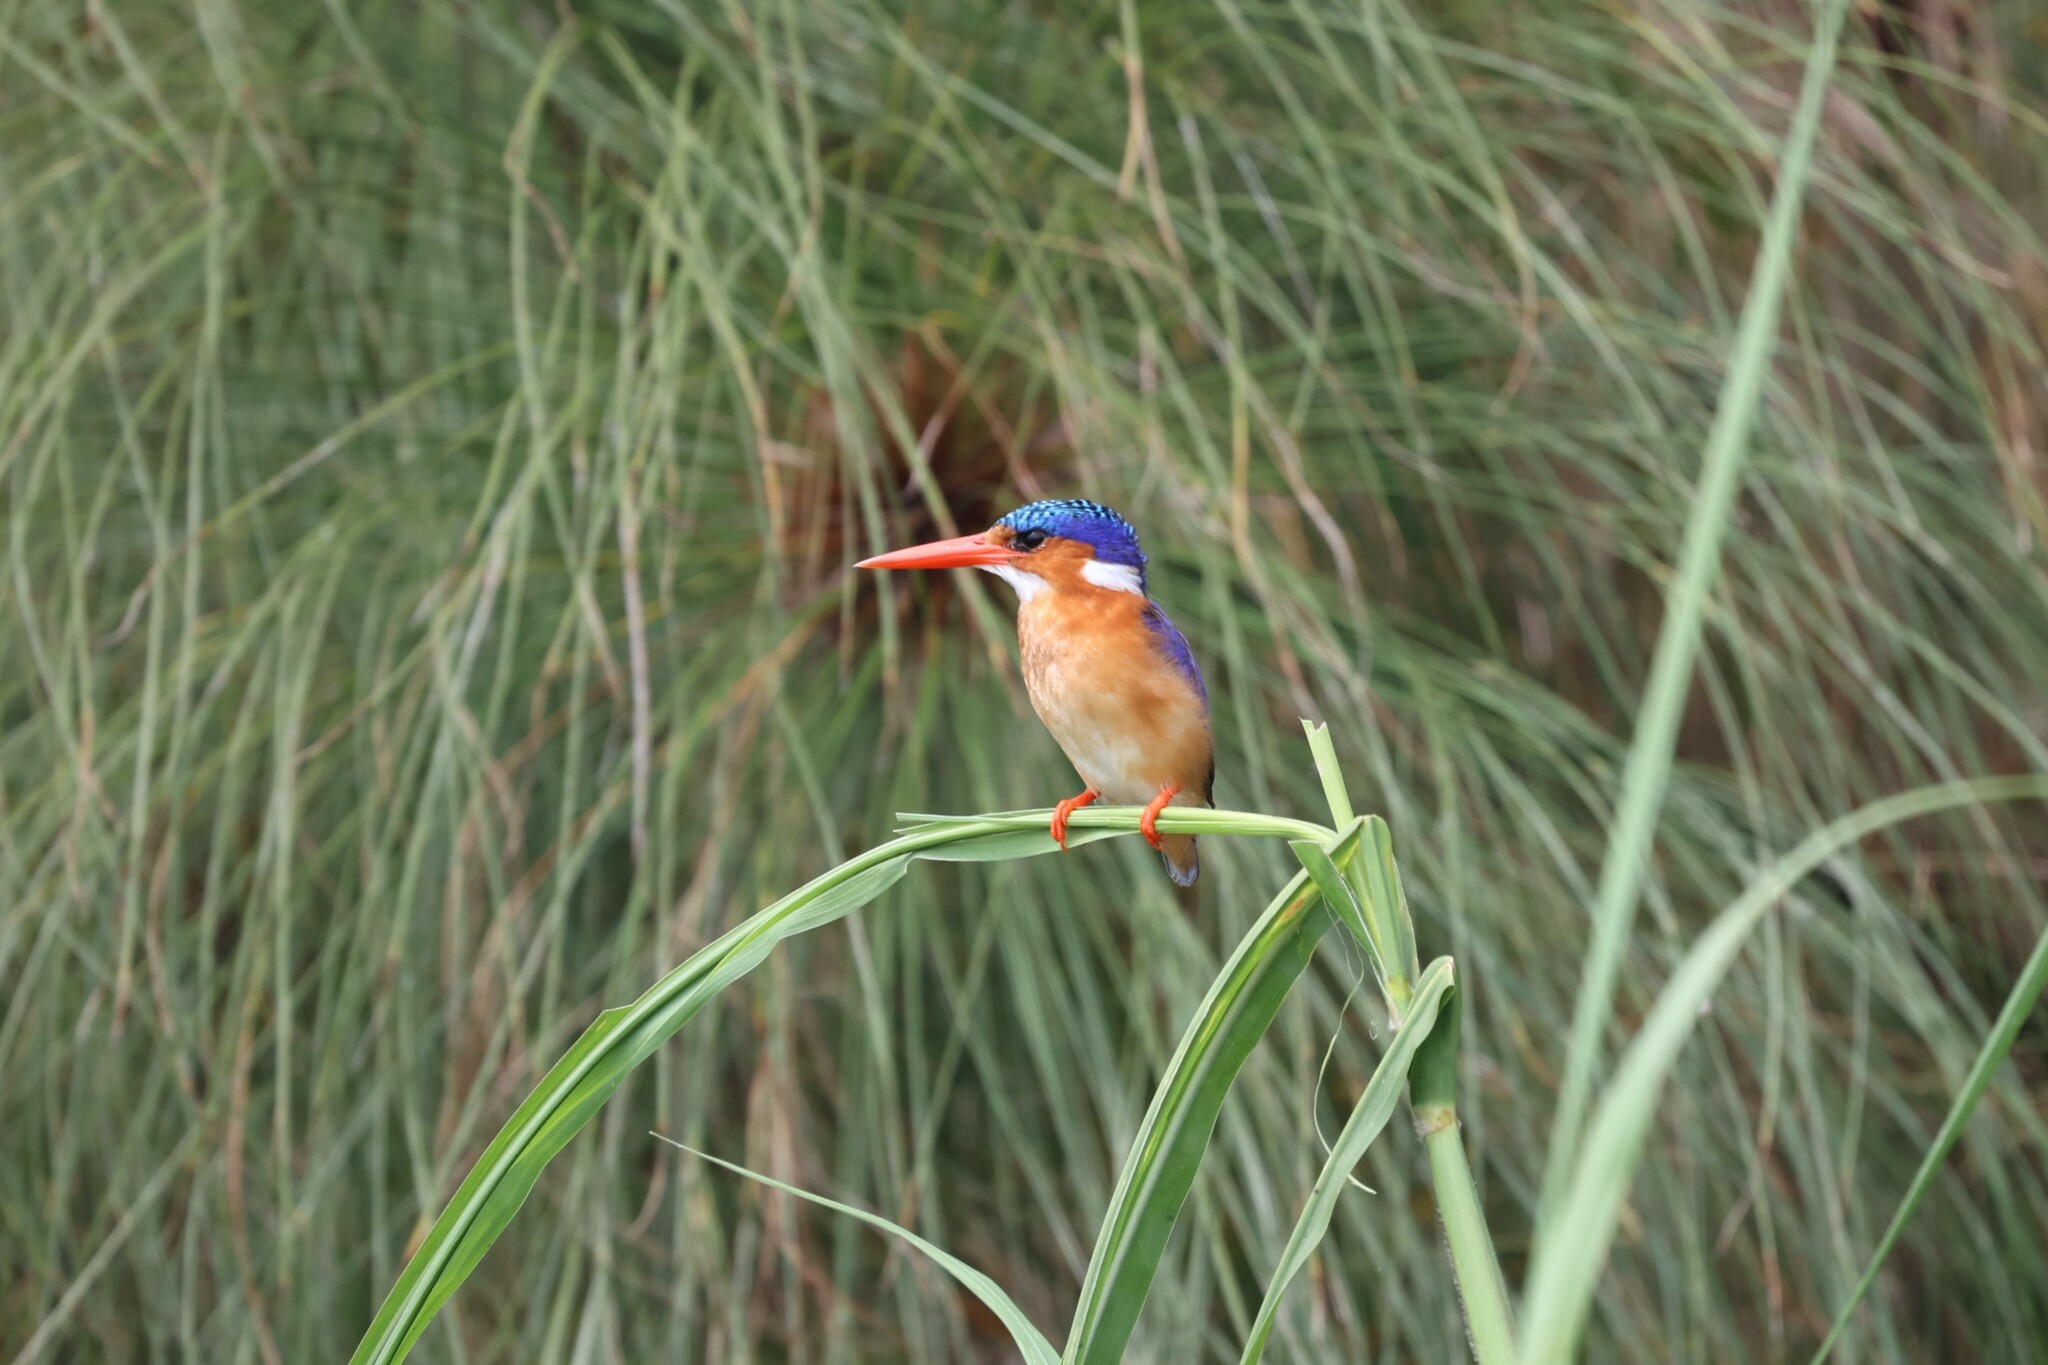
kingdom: Animalia
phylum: Chordata
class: Aves
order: Coraciiformes
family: Alcedinidae
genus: Corythornis
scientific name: Corythornis cristatus
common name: Malachite kingfisher
